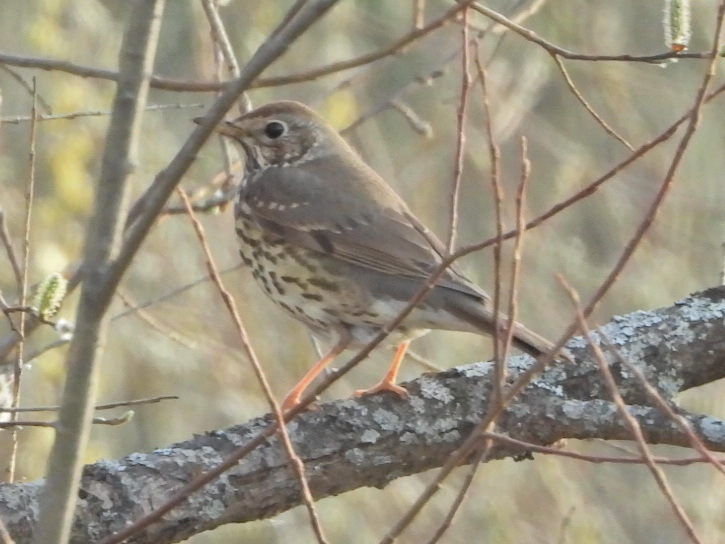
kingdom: Animalia
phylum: Chordata
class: Aves
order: Passeriformes
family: Turdidae
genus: Turdus
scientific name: Turdus philomelos
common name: Song thrush
